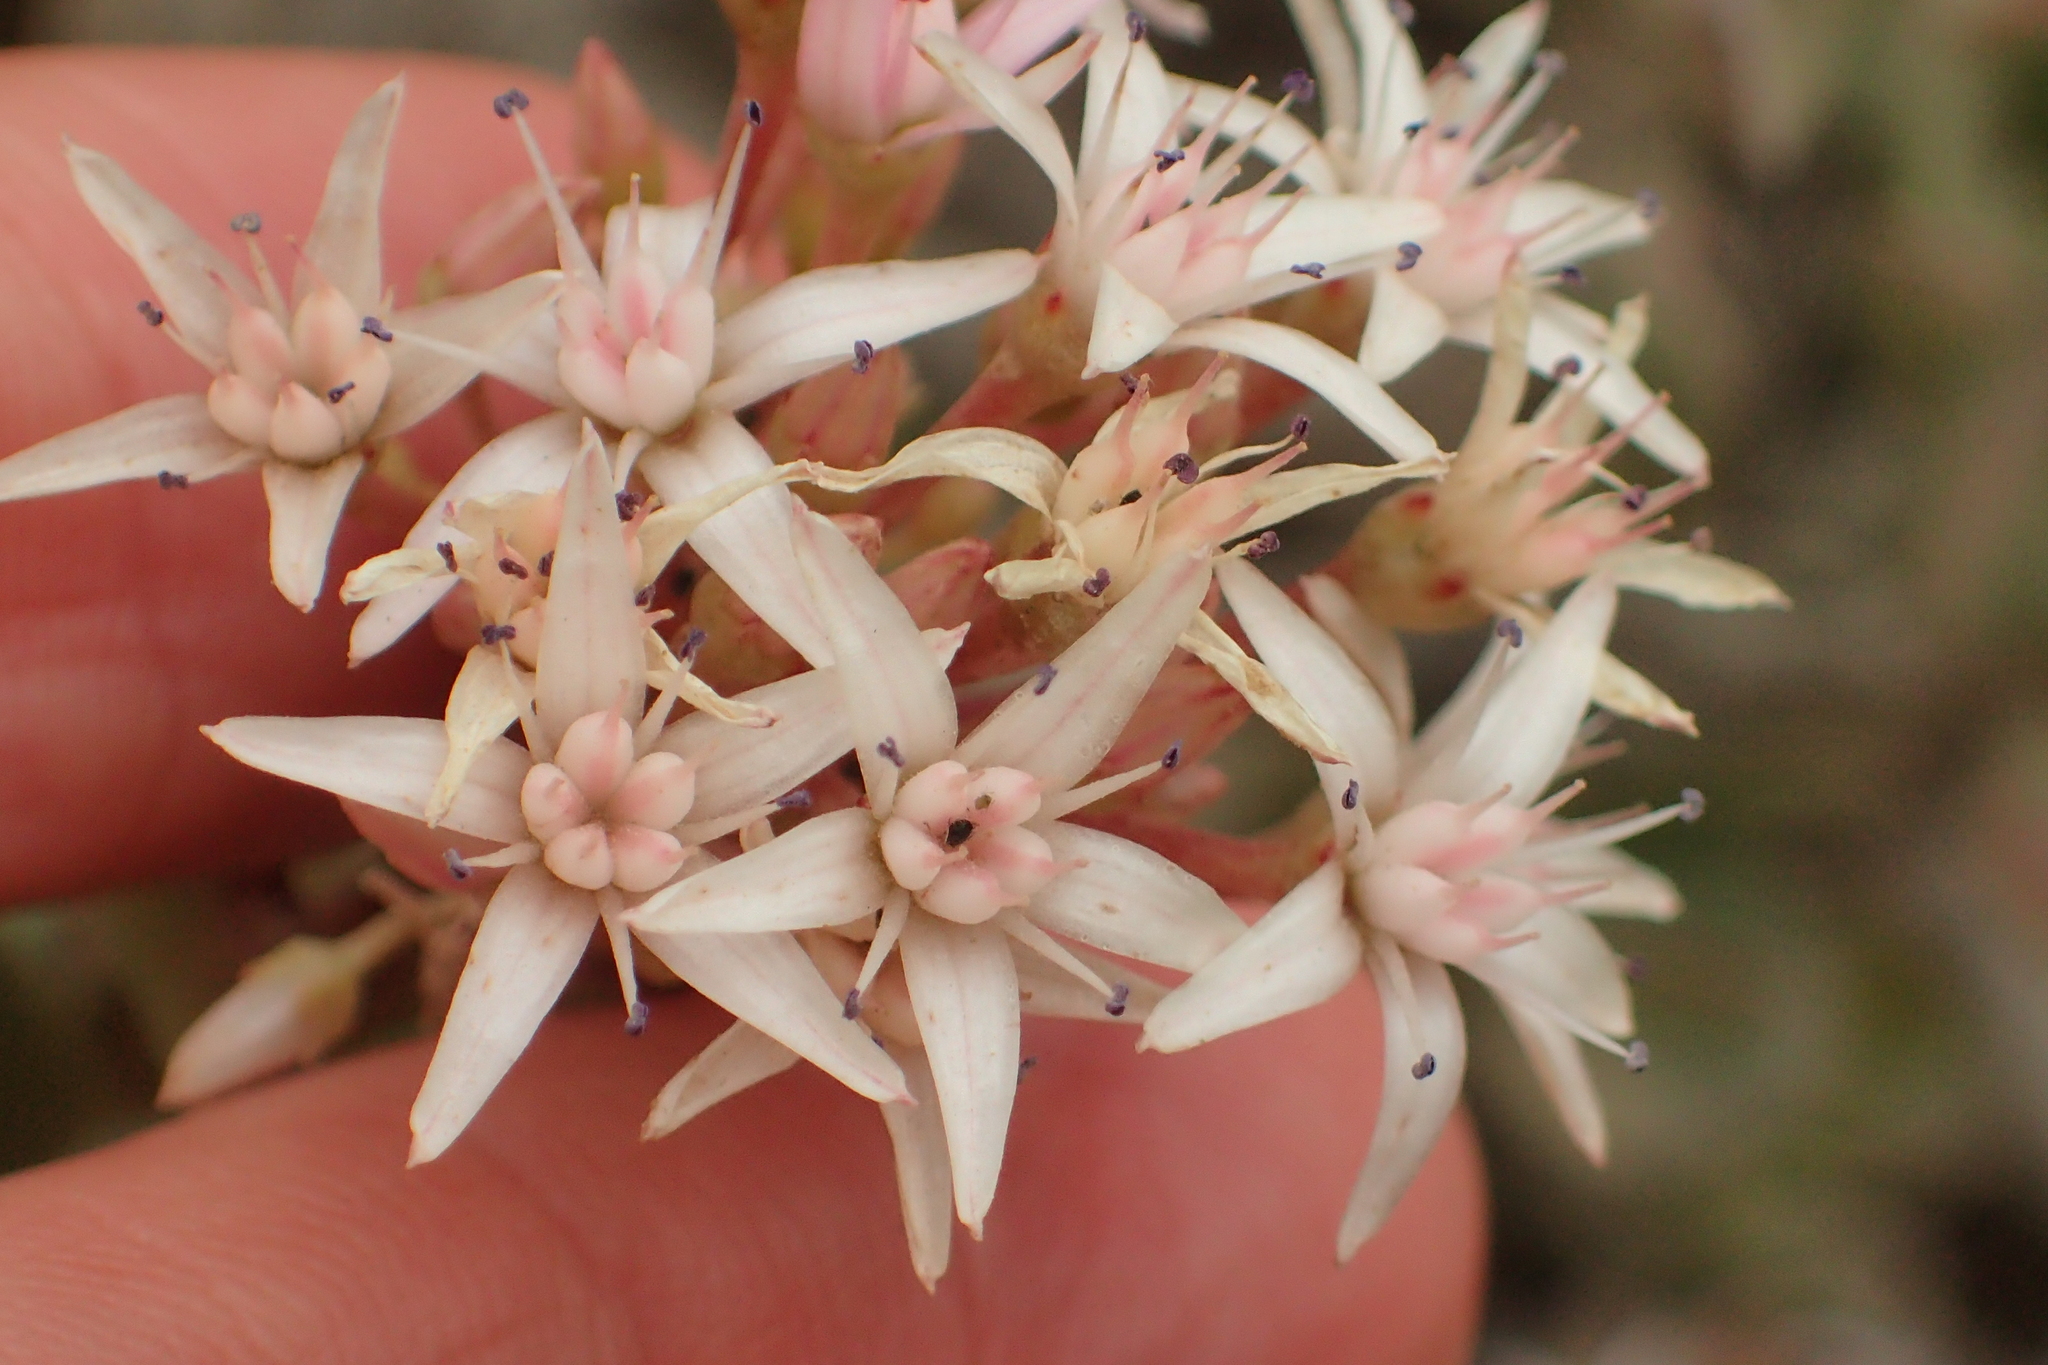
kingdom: Plantae
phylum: Tracheophyta
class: Magnoliopsida
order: Saxifragales
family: Crassulaceae
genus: Crassula
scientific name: Crassula ovata
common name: Jade plant
